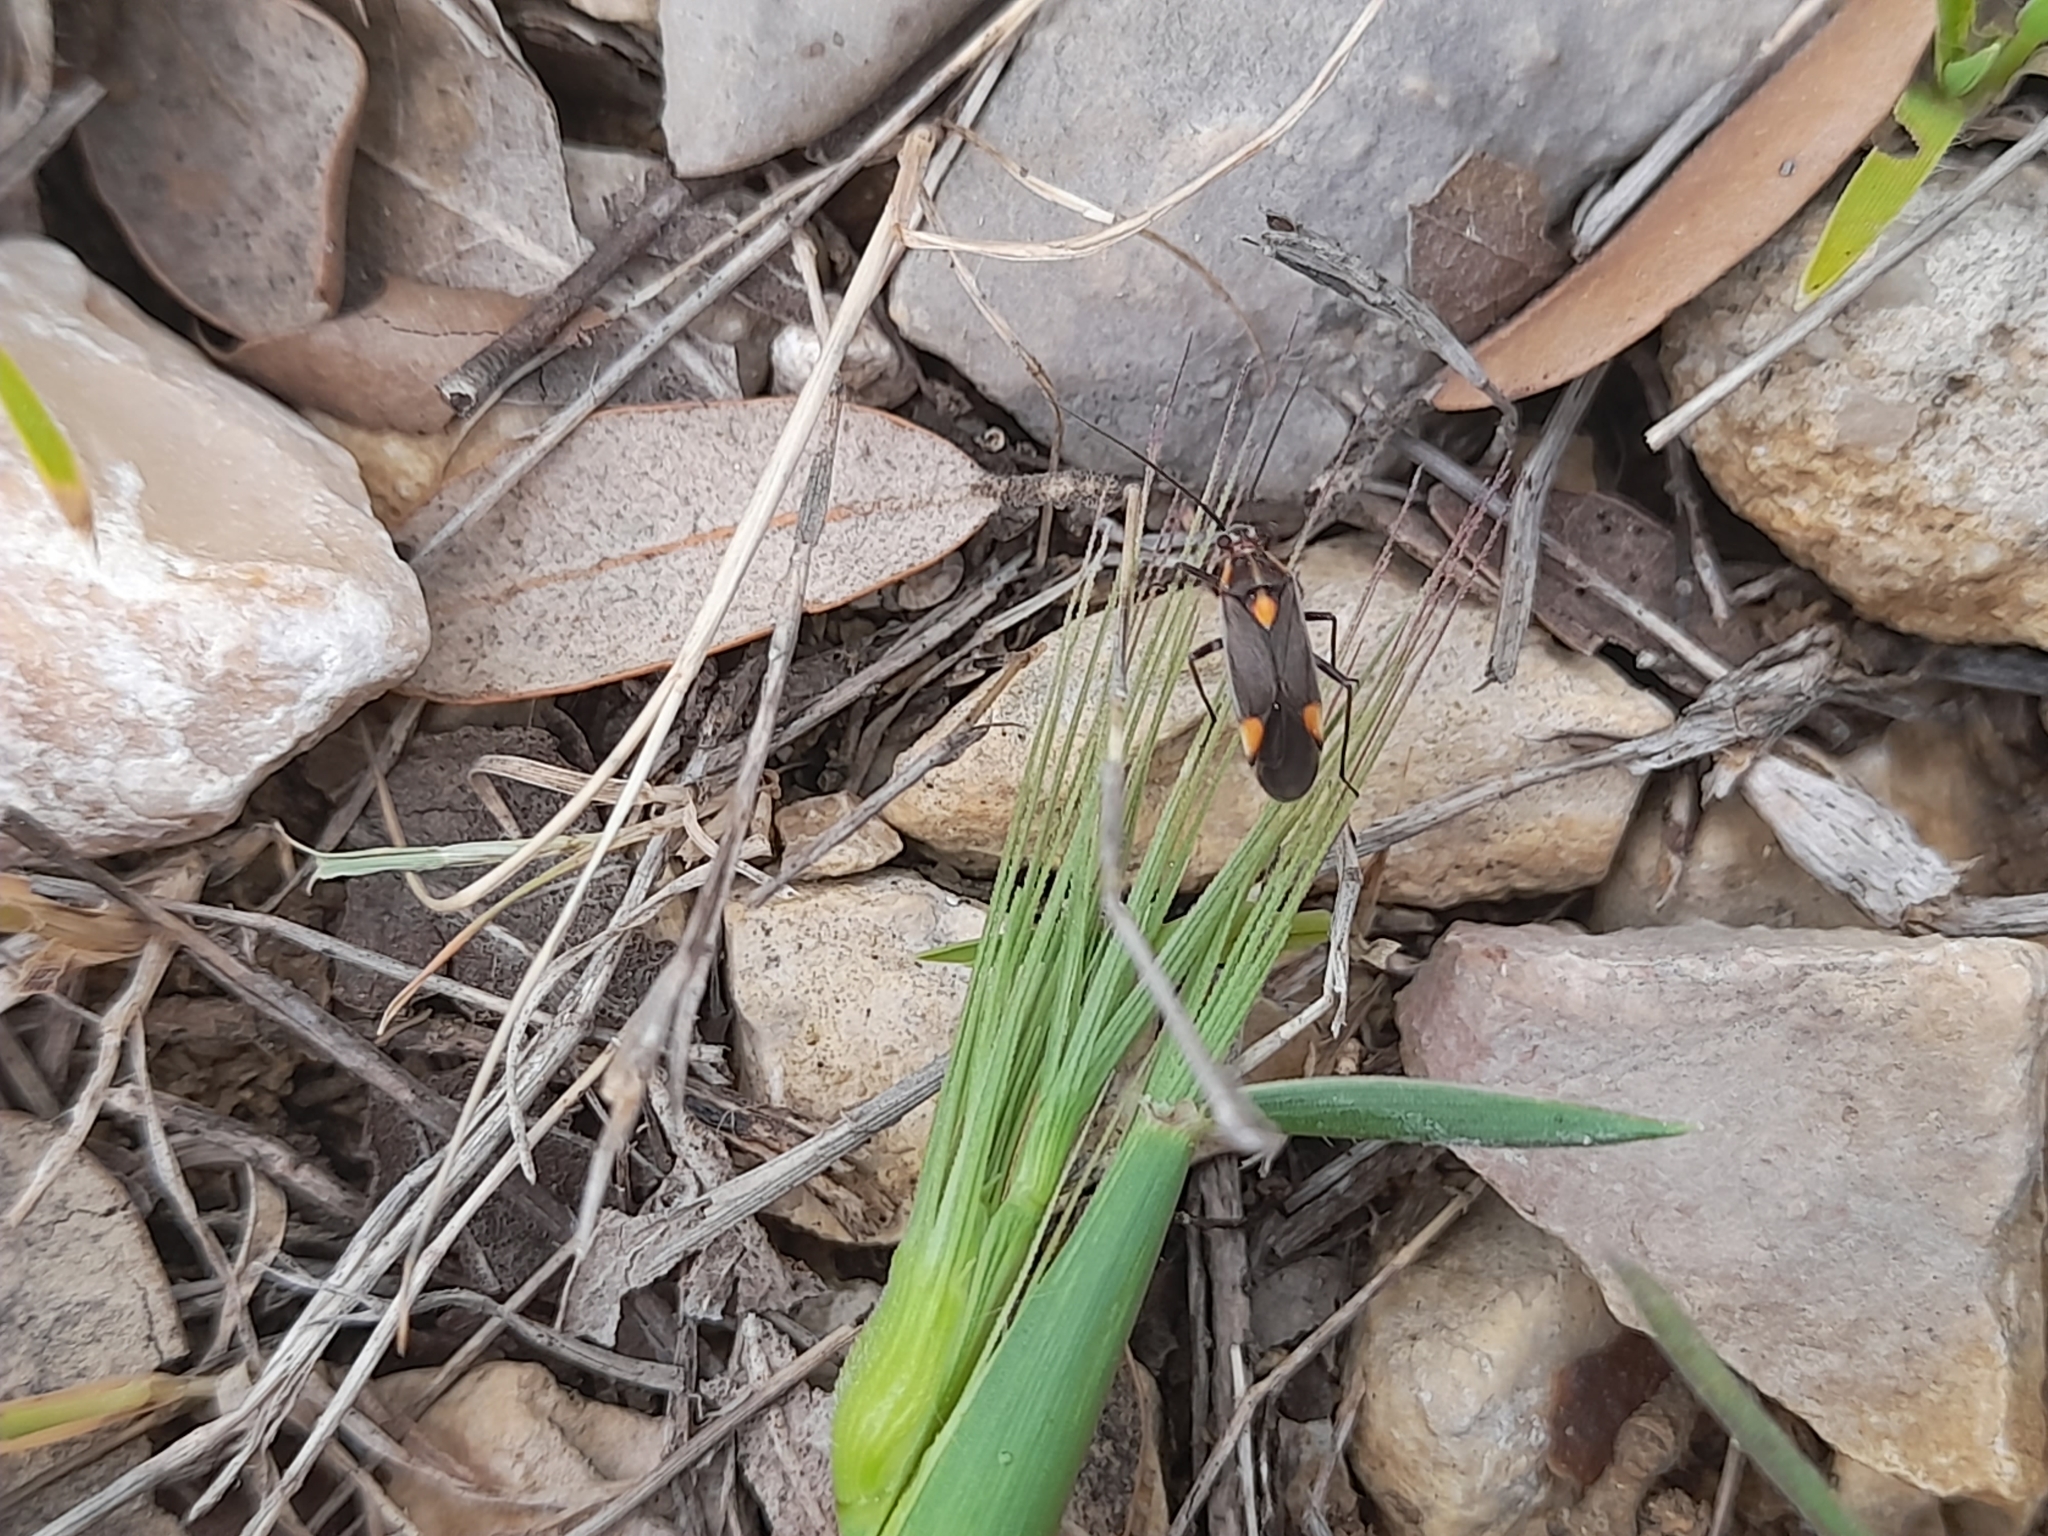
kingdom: Animalia
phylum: Arthropoda
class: Insecta
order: Hemiptera
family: Miridae
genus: Capsodes
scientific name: Capsodes flavomarginatus
